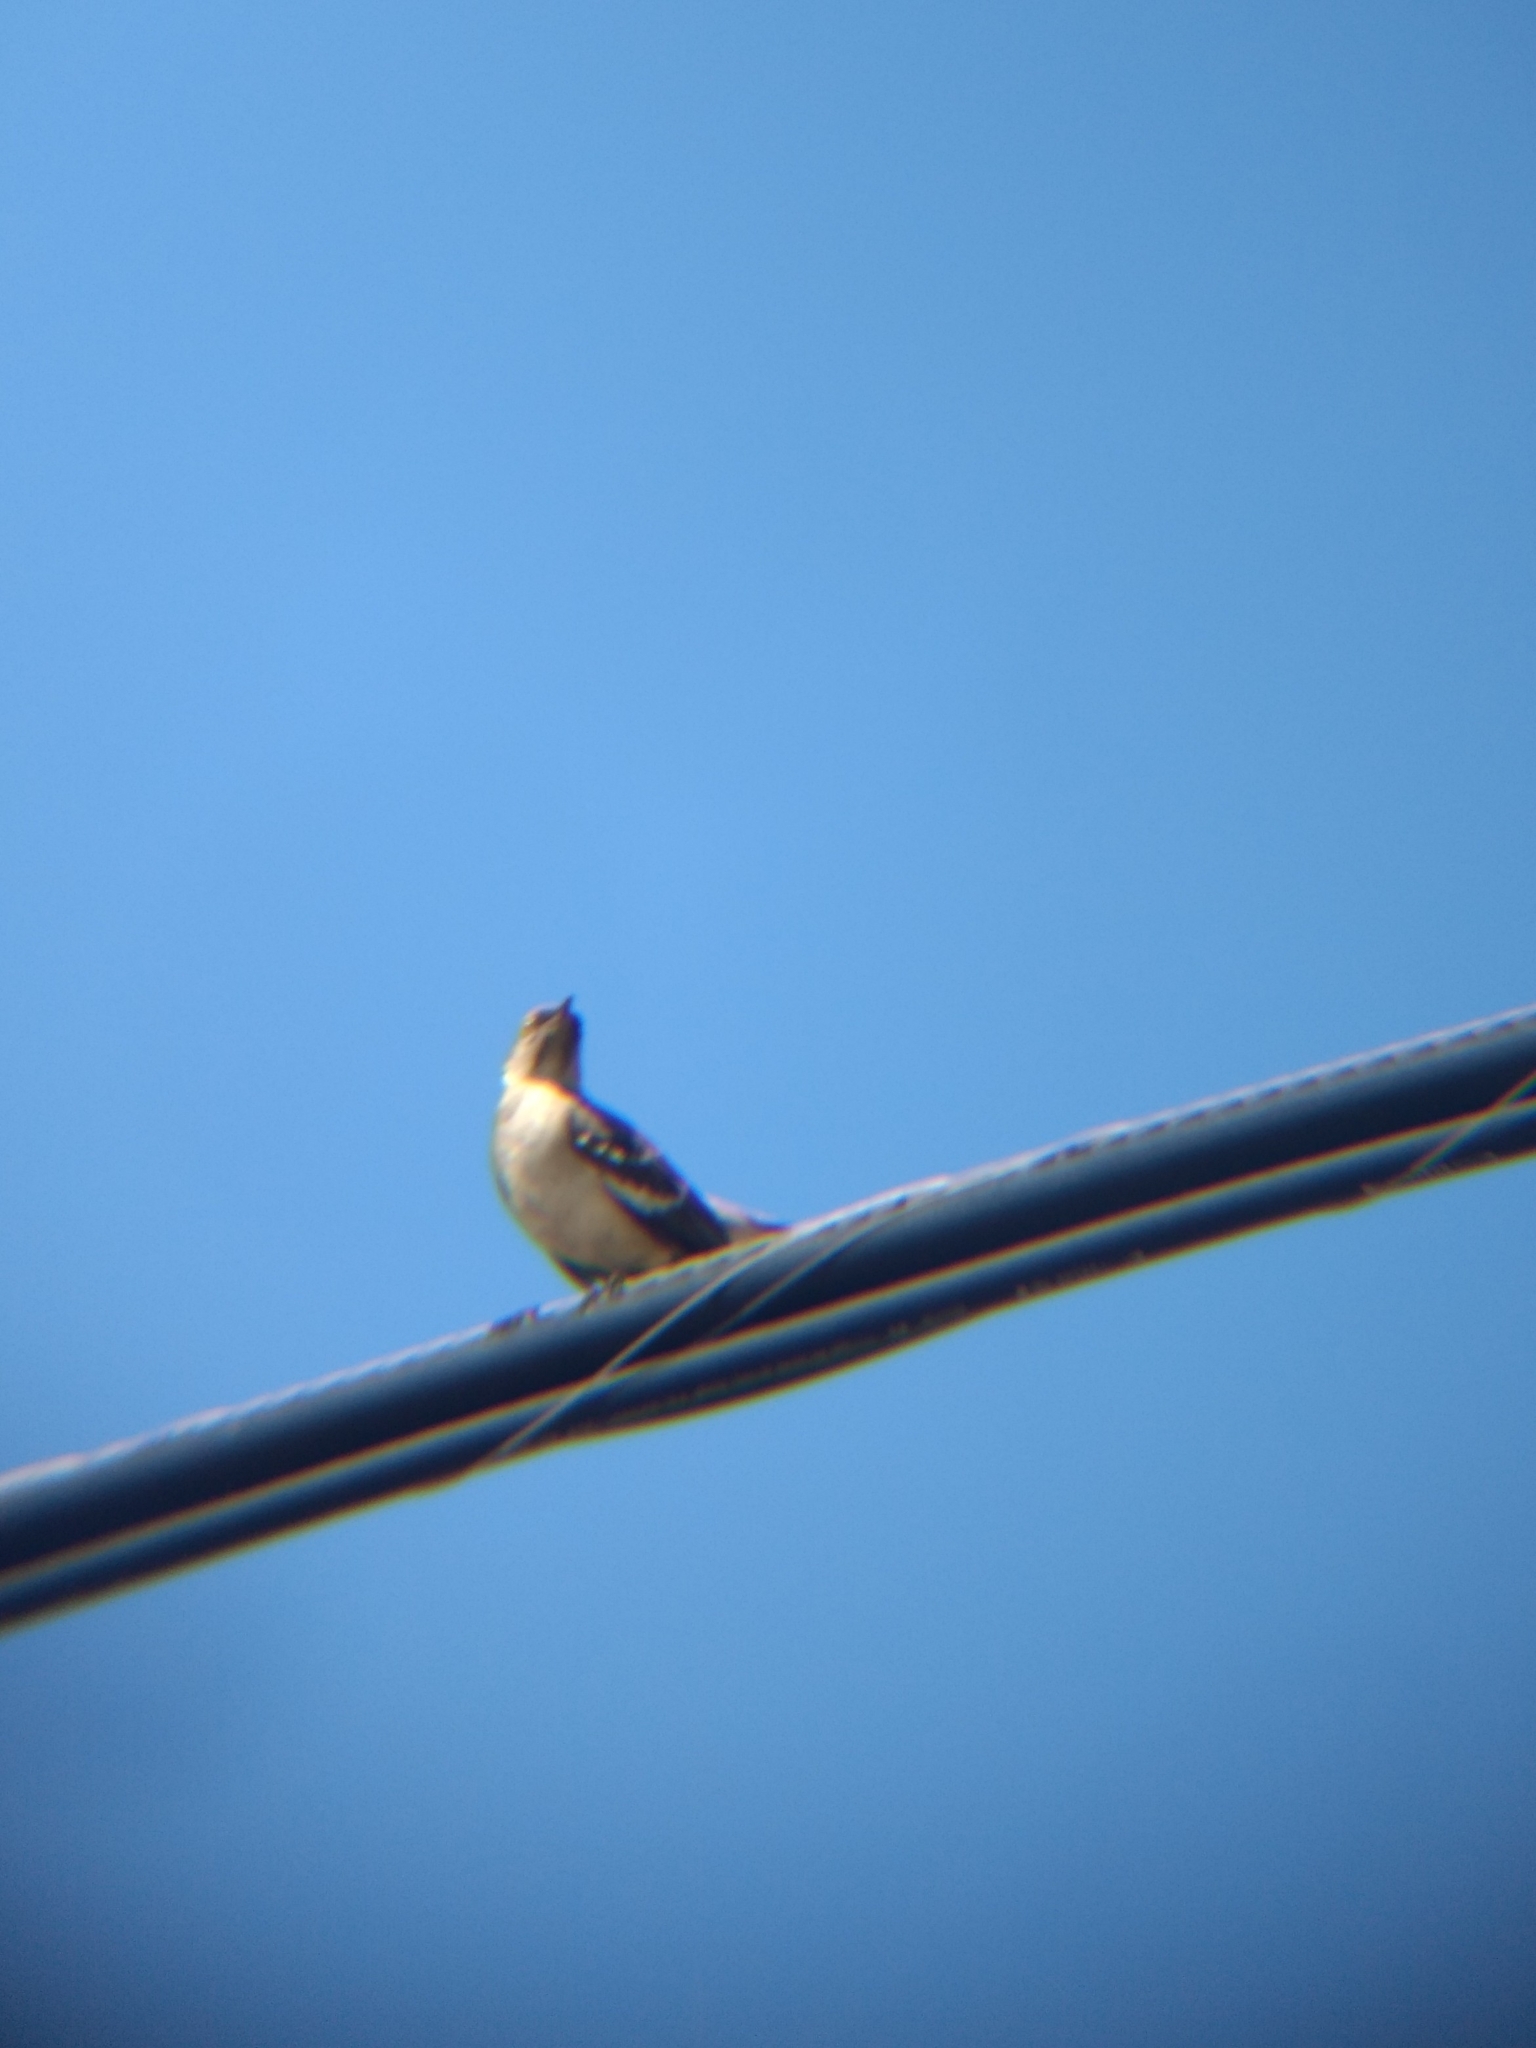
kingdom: Animalia
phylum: Chordata
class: Aves
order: Passeriformes
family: Mimidae
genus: Mimus
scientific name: Mimus polyglottos
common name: Northern mockingbird
